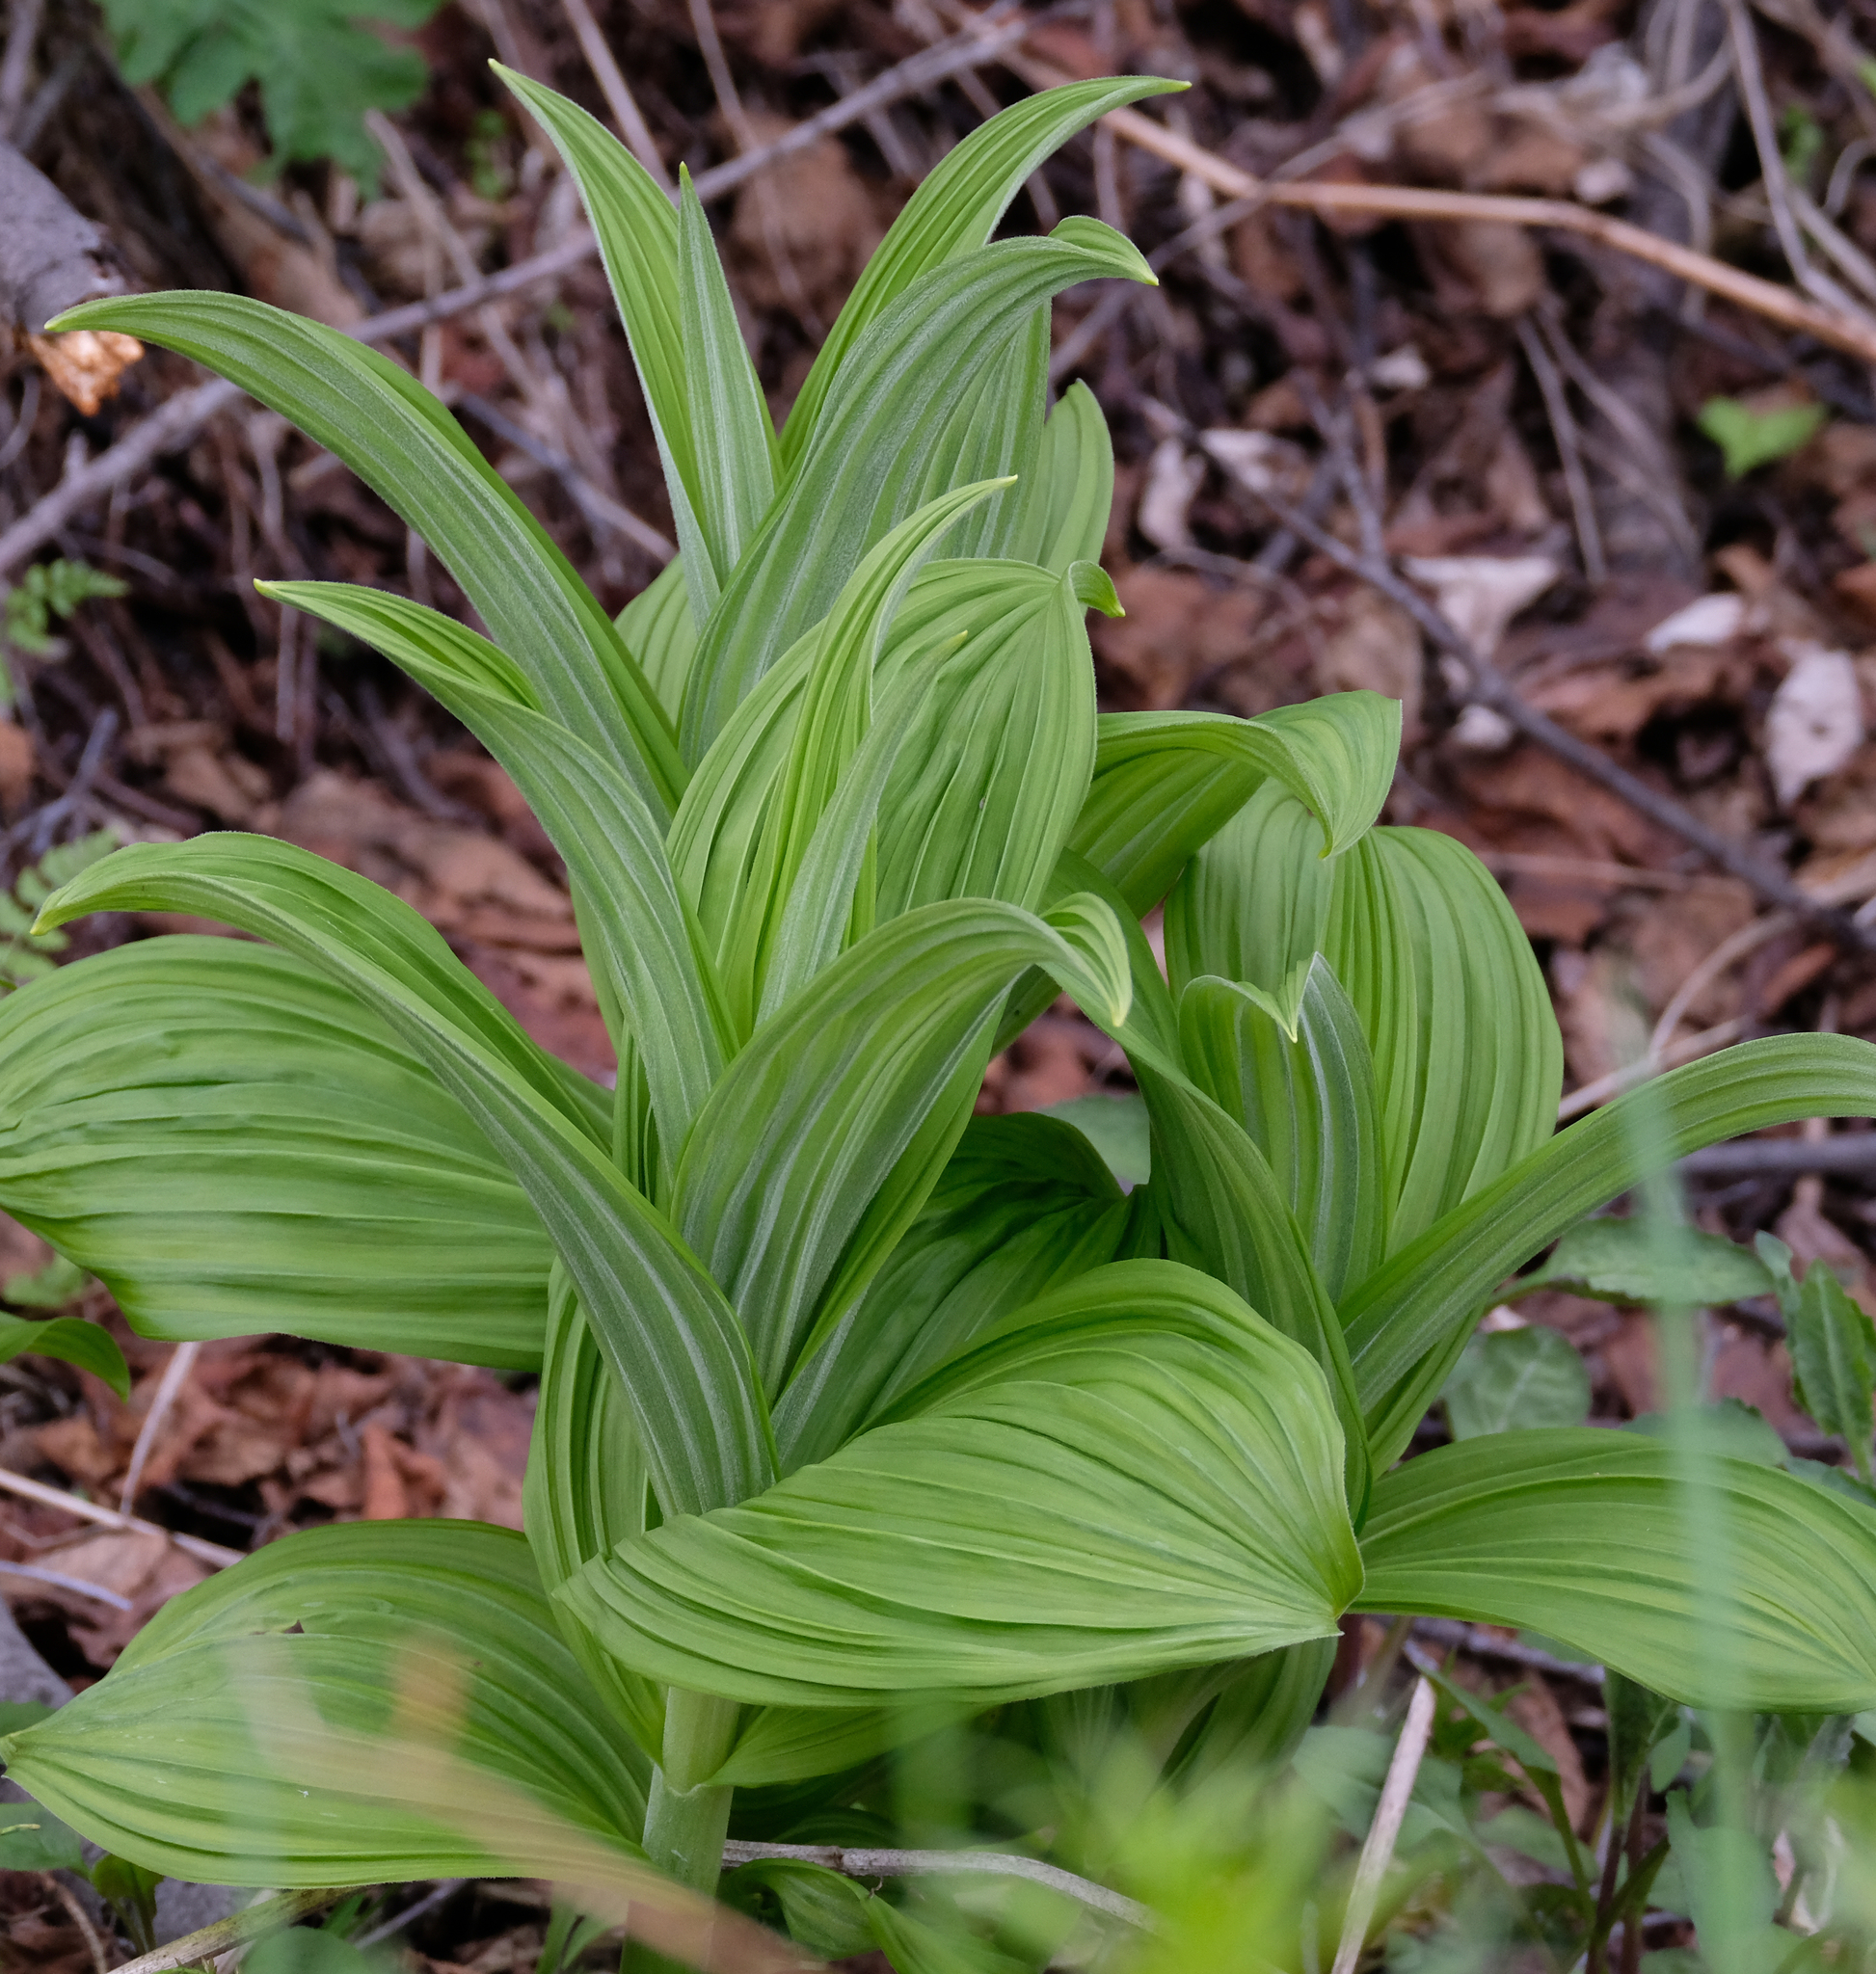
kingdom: Plantae
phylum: Tracheophyta
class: Liliopsida
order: Liliales
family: Melanthiaceae
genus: Veratrum
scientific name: Veratrum viride
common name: American false hellebore
